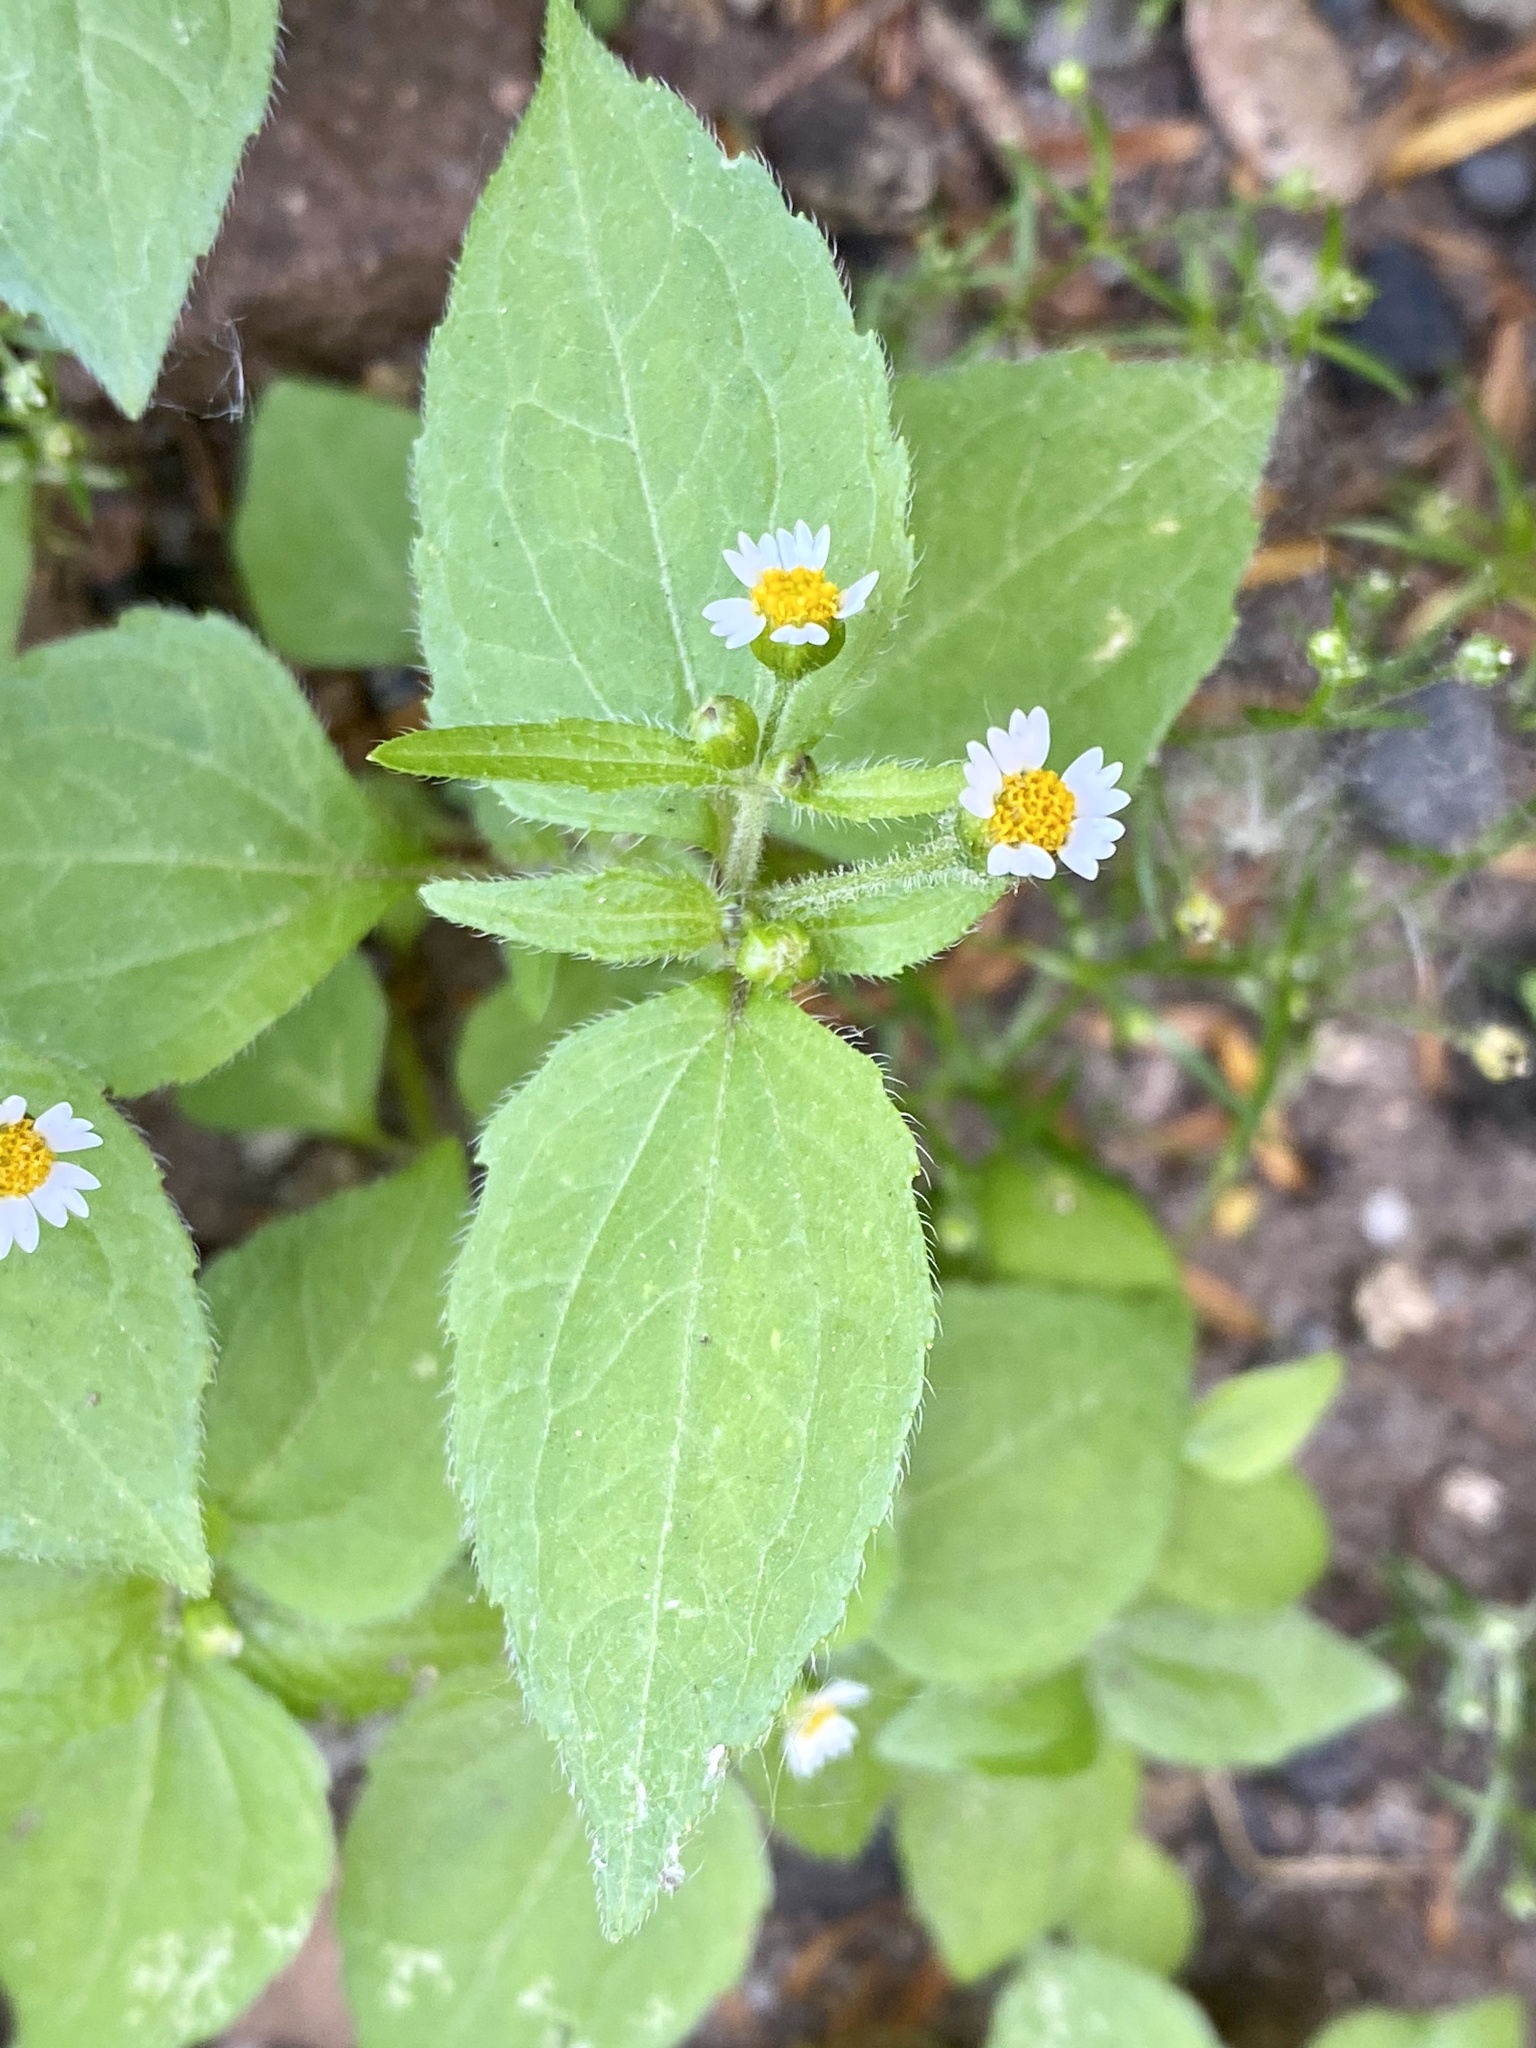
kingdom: Plantae
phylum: Tracheophyta
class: Magnoliopsida
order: Asterales
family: Asteraceae
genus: Galinsoga
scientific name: Galinsoga quadriradiata
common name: Shaggy soldier
